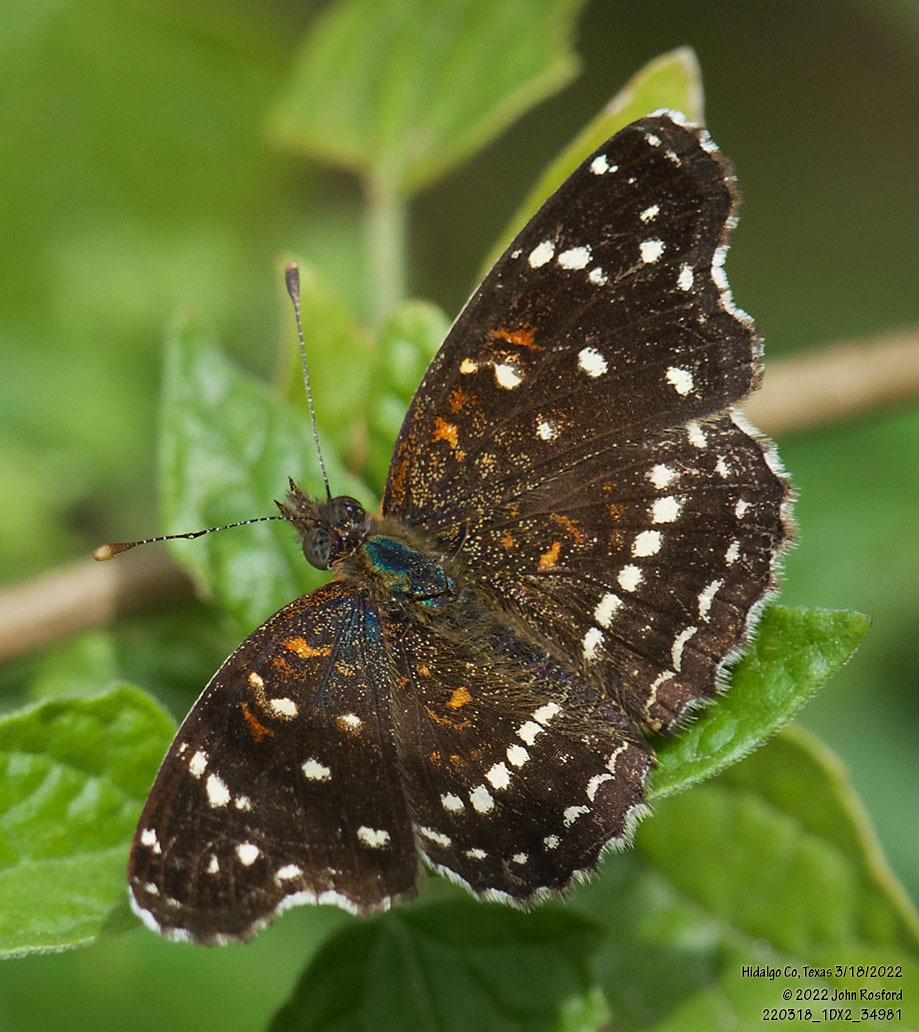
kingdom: Animalia
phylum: Arthropoda
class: Insecta
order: Lepidoptera
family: Nymphalidae
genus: Anthanassa
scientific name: Anthanassa texana
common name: Texan crescent
